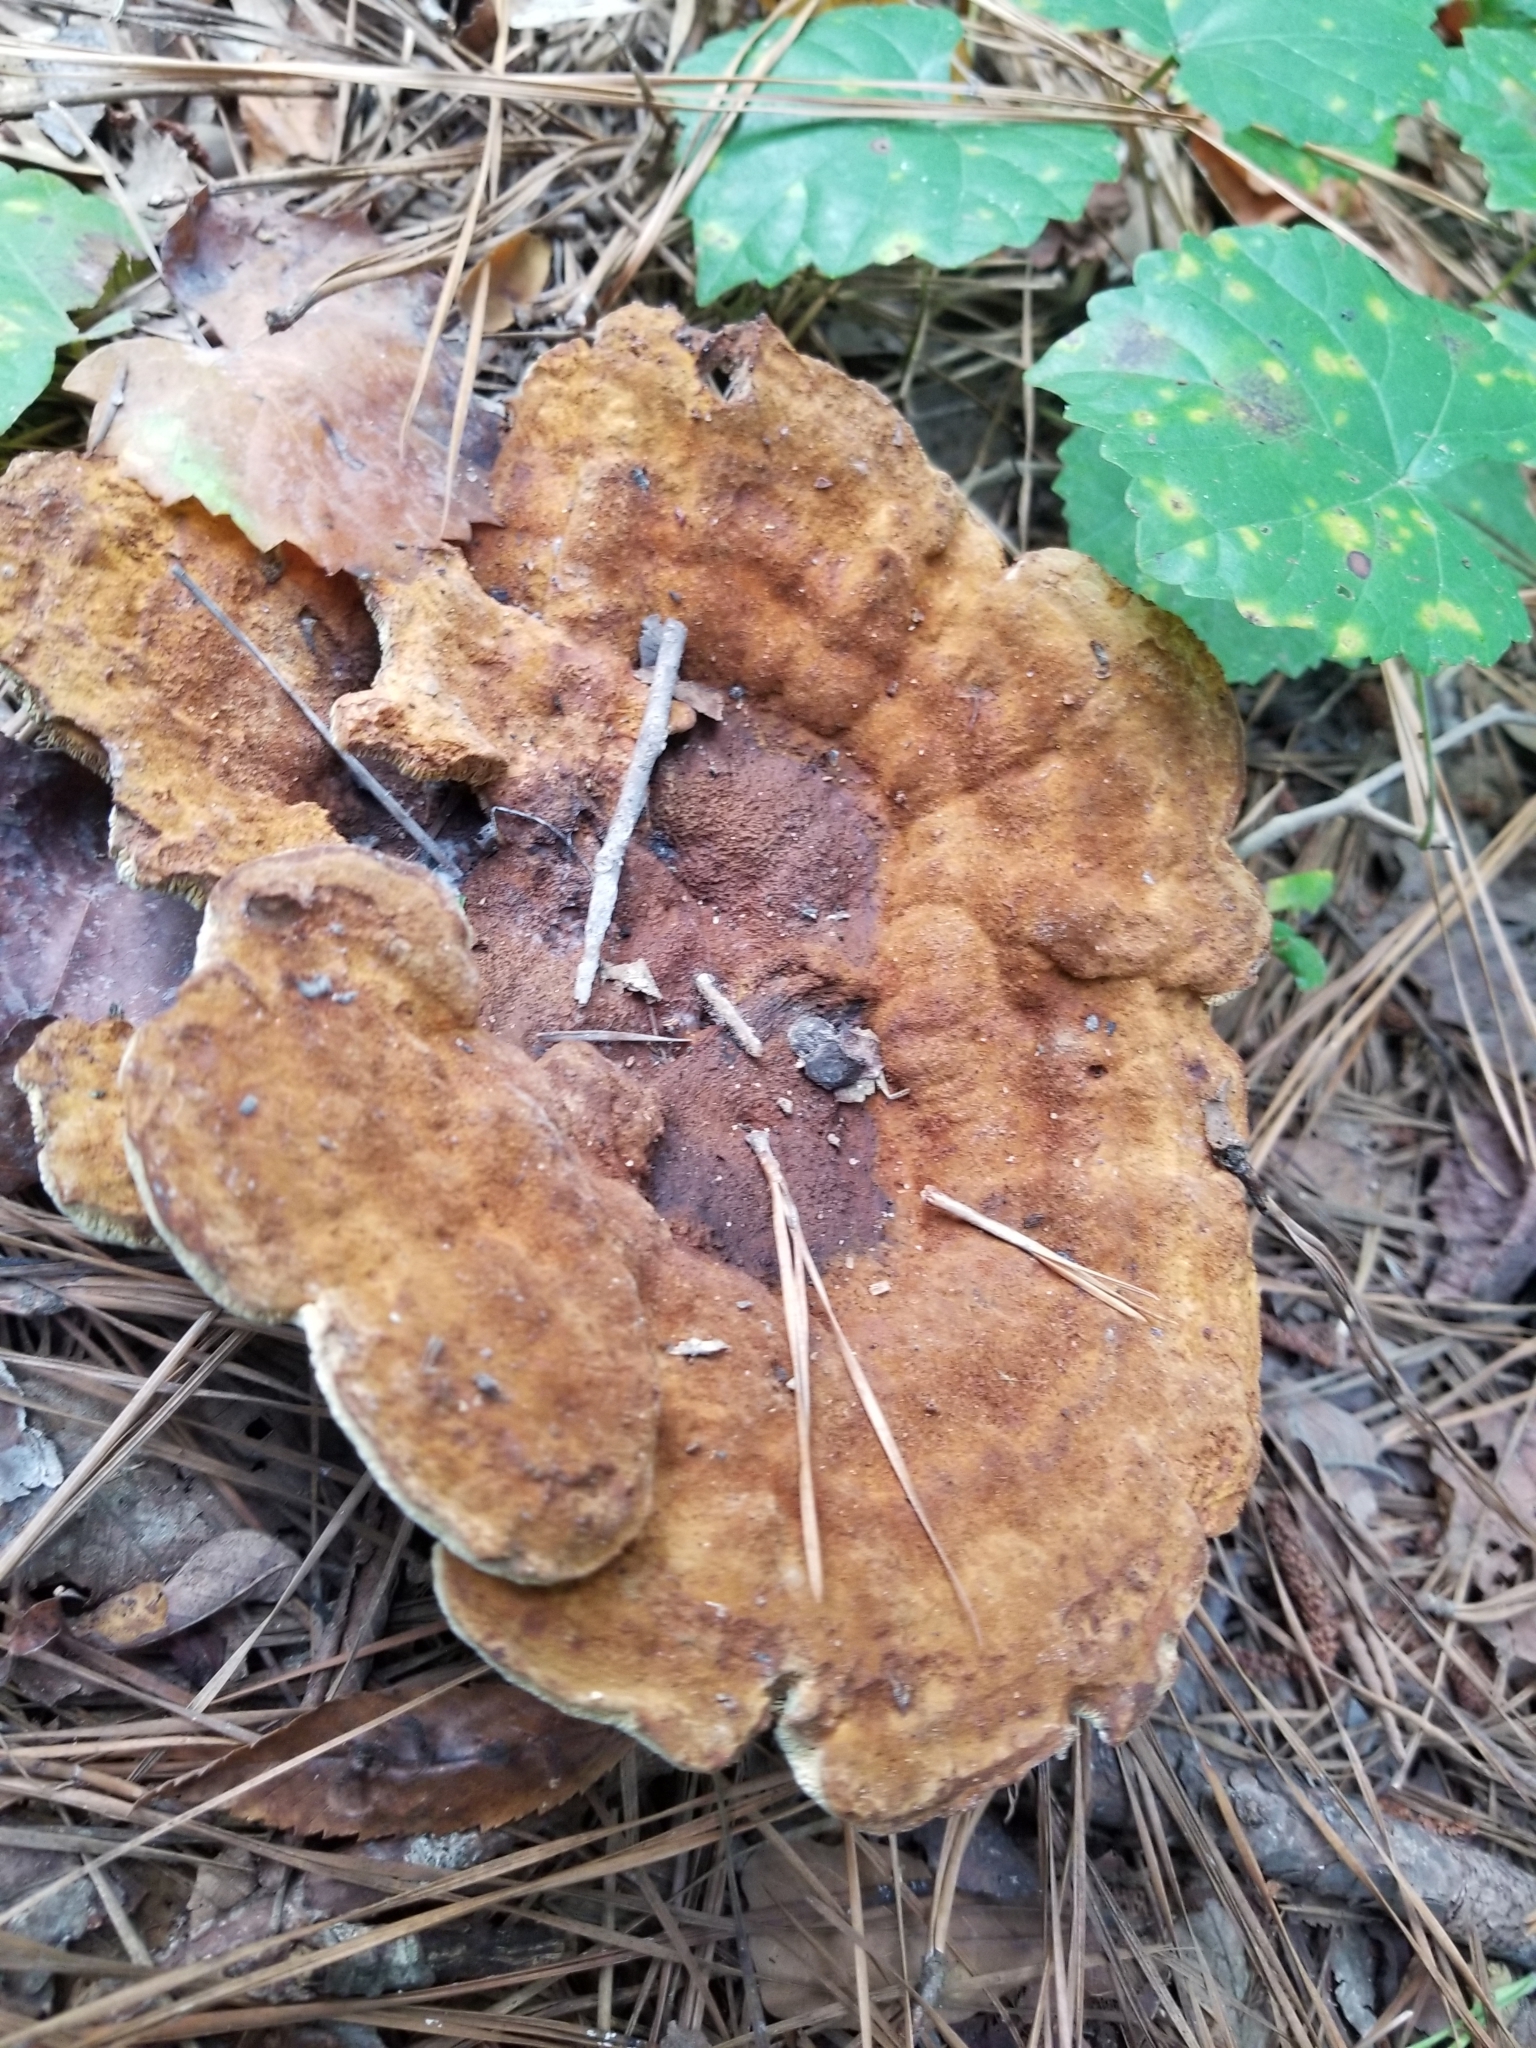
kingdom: Fungi
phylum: Basidiomycota
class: Agaricomycetes
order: Polyporales
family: Laetiporaceae
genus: Phaeolus
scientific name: Phaeolus schweinitzii
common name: Dyer's mazegill
